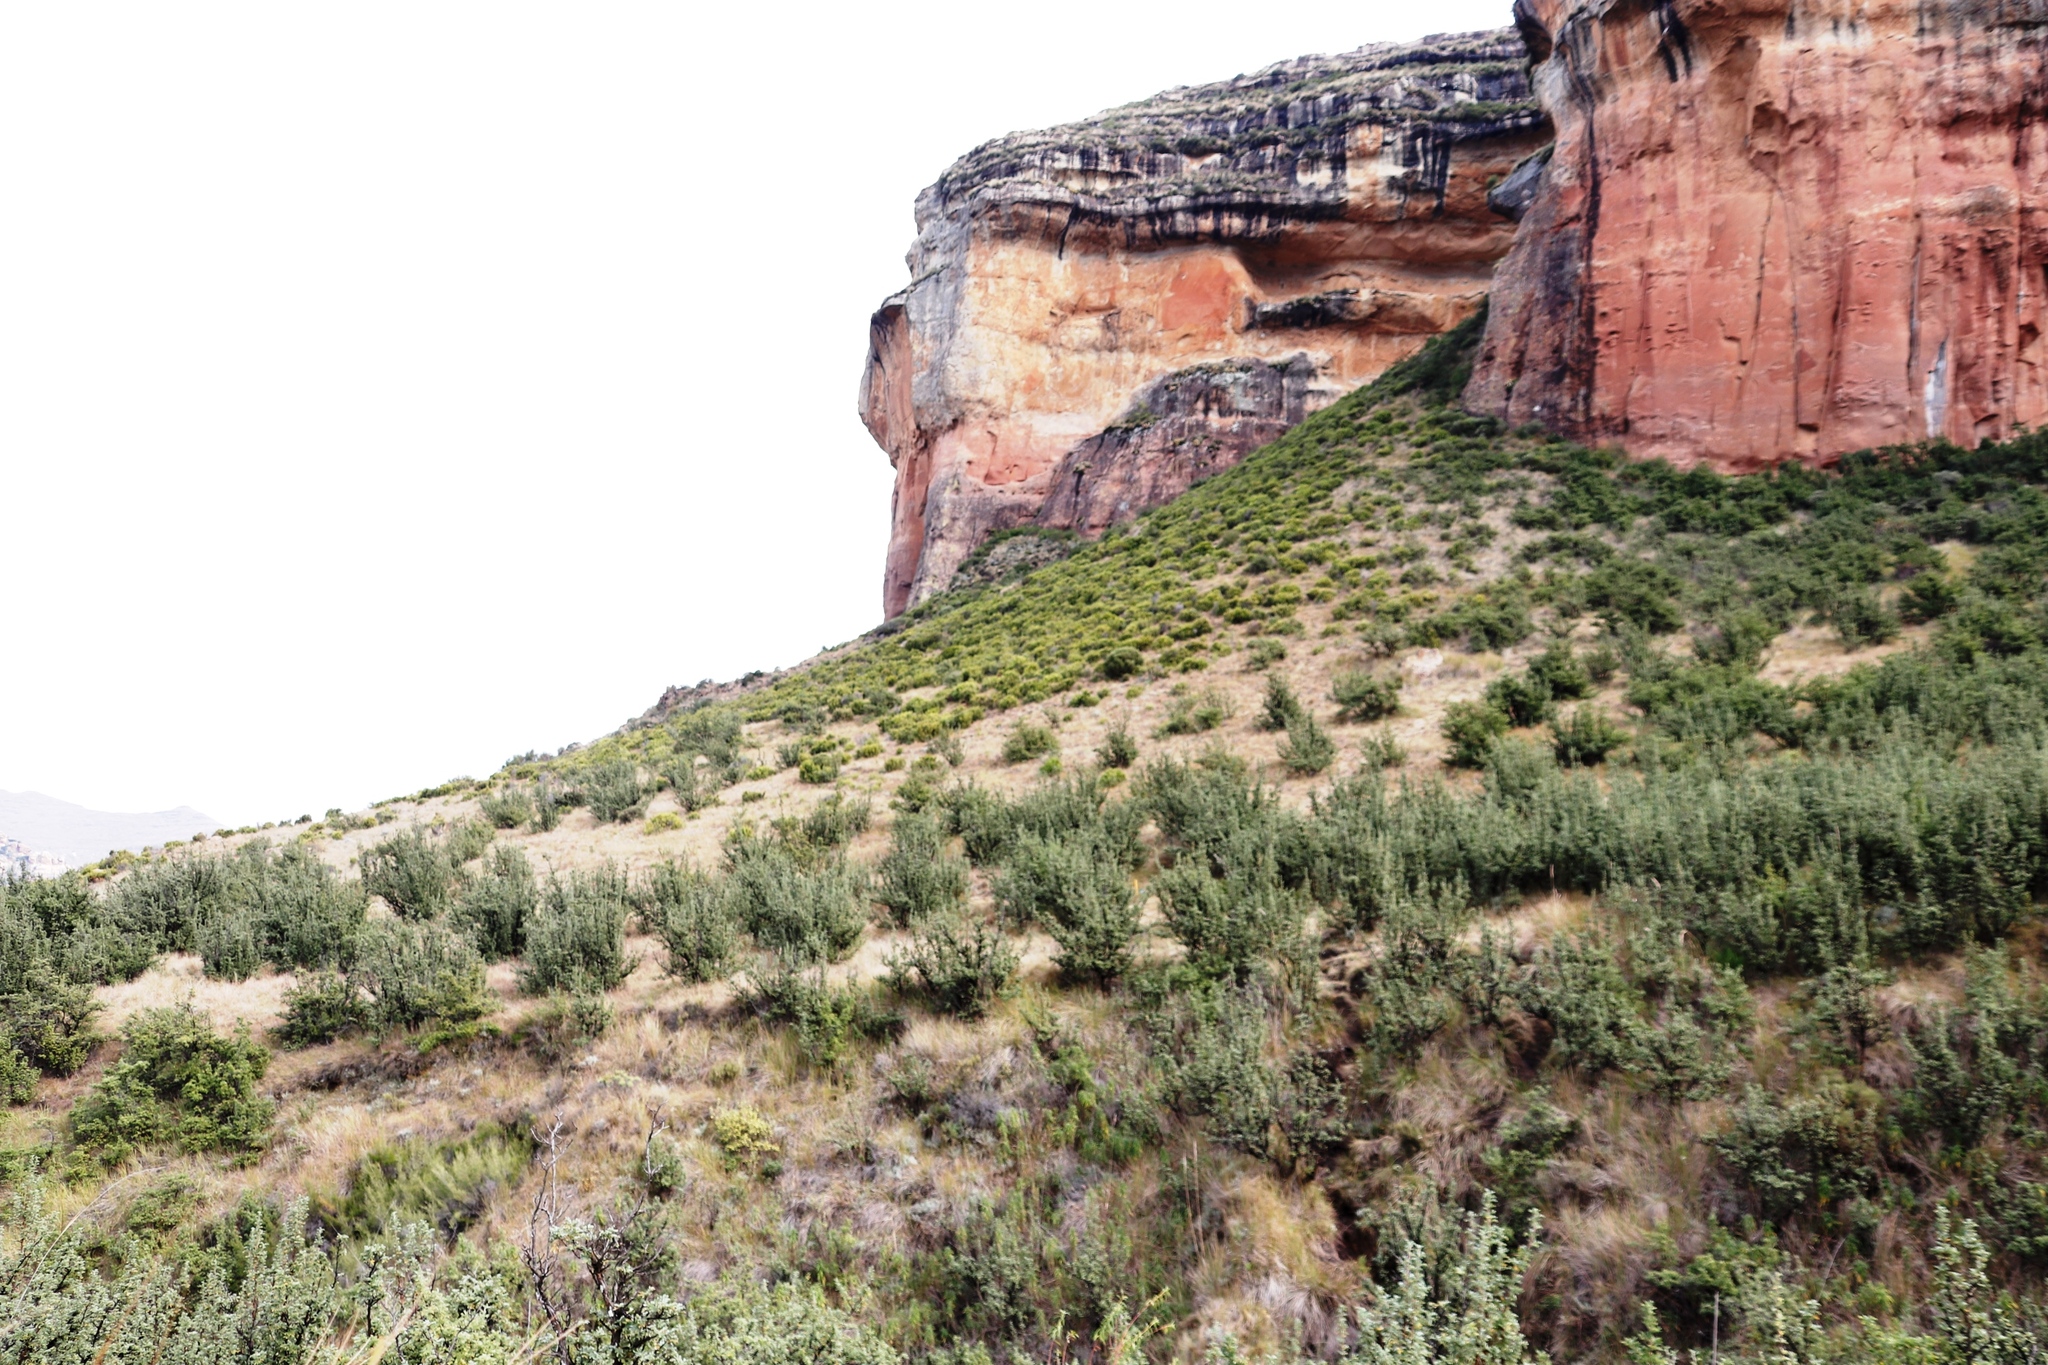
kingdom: Plantae
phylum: Tracheophyta
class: Magnoliopsida
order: Rosales
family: Rosaceae
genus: Leucosidea
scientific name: Leucosidea sericea
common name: Oldwood
